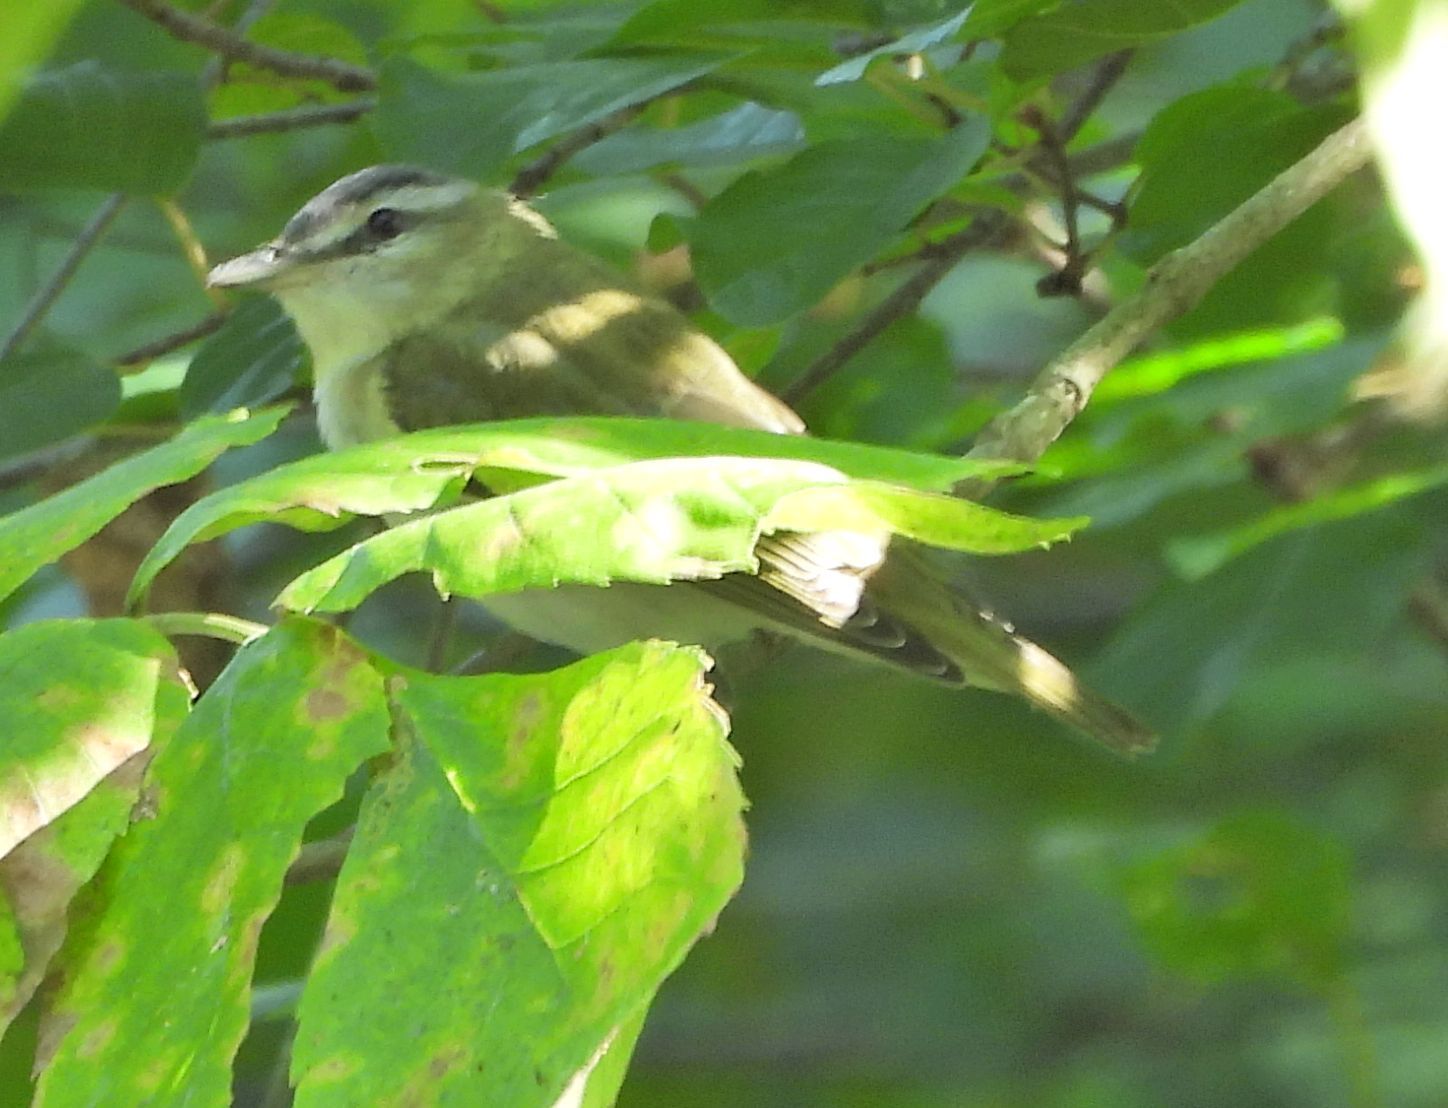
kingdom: Animalia
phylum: Chordata
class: Aves
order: Passeriformes
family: Vireonidae
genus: Vireo
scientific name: Vireo olivaceus
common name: Red-eyed vireo
